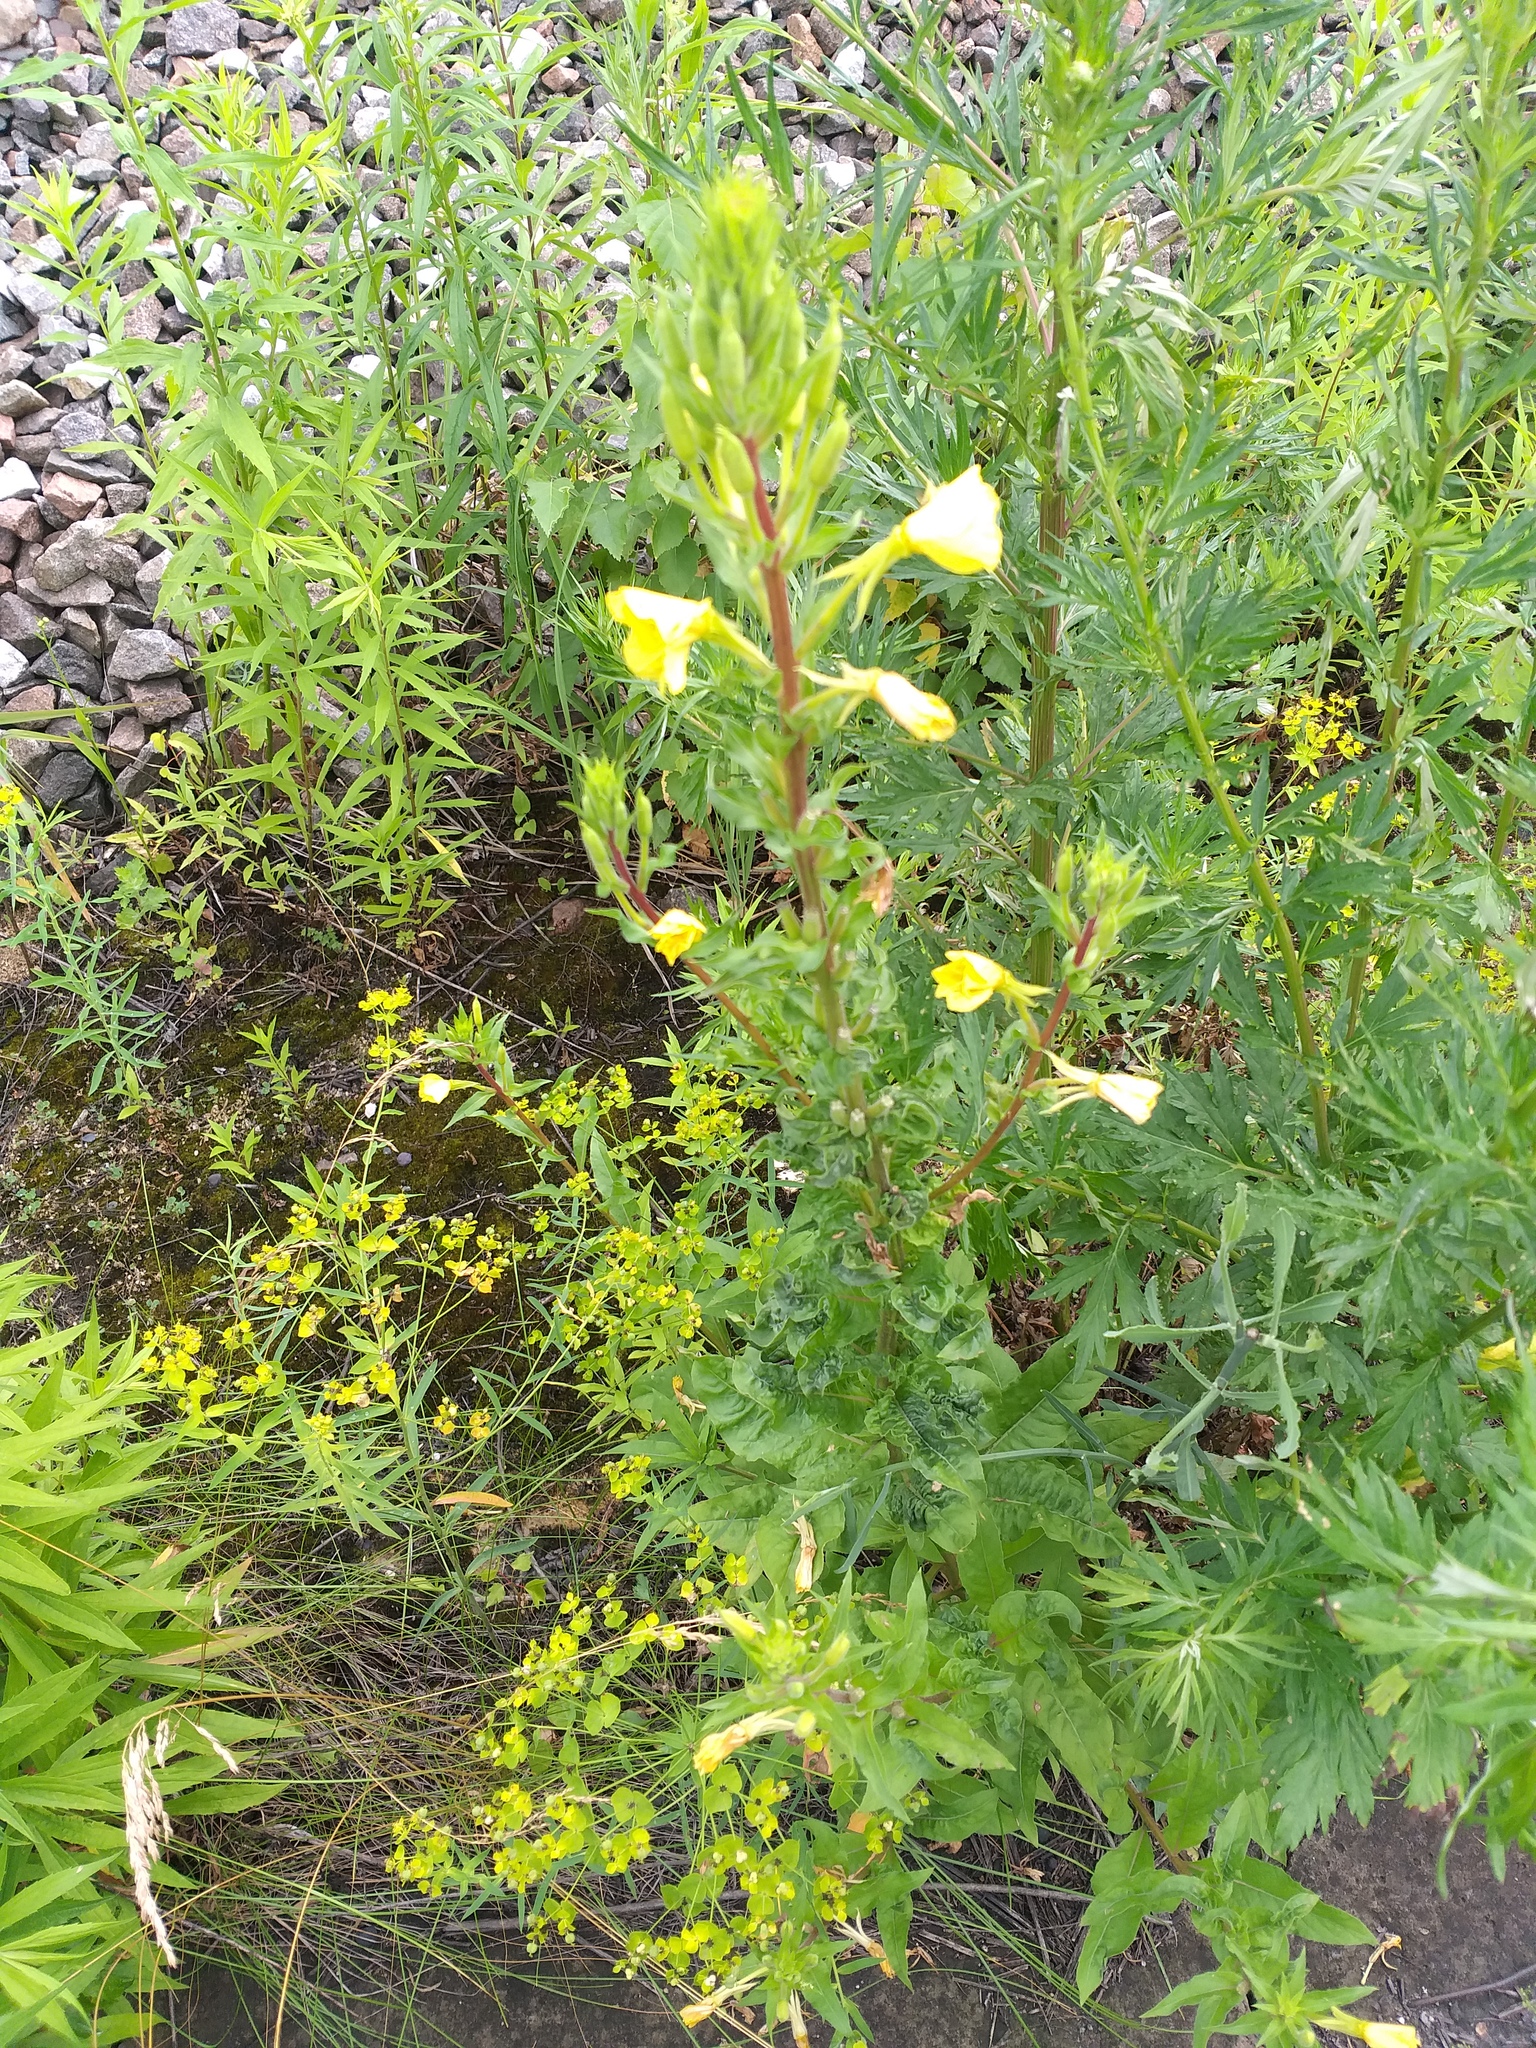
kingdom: Plantae
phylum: Tracheophyta
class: Magnoliopsida
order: Myrtales
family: Onagraceae
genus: Oenothera
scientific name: Oenothera rubricaulis
